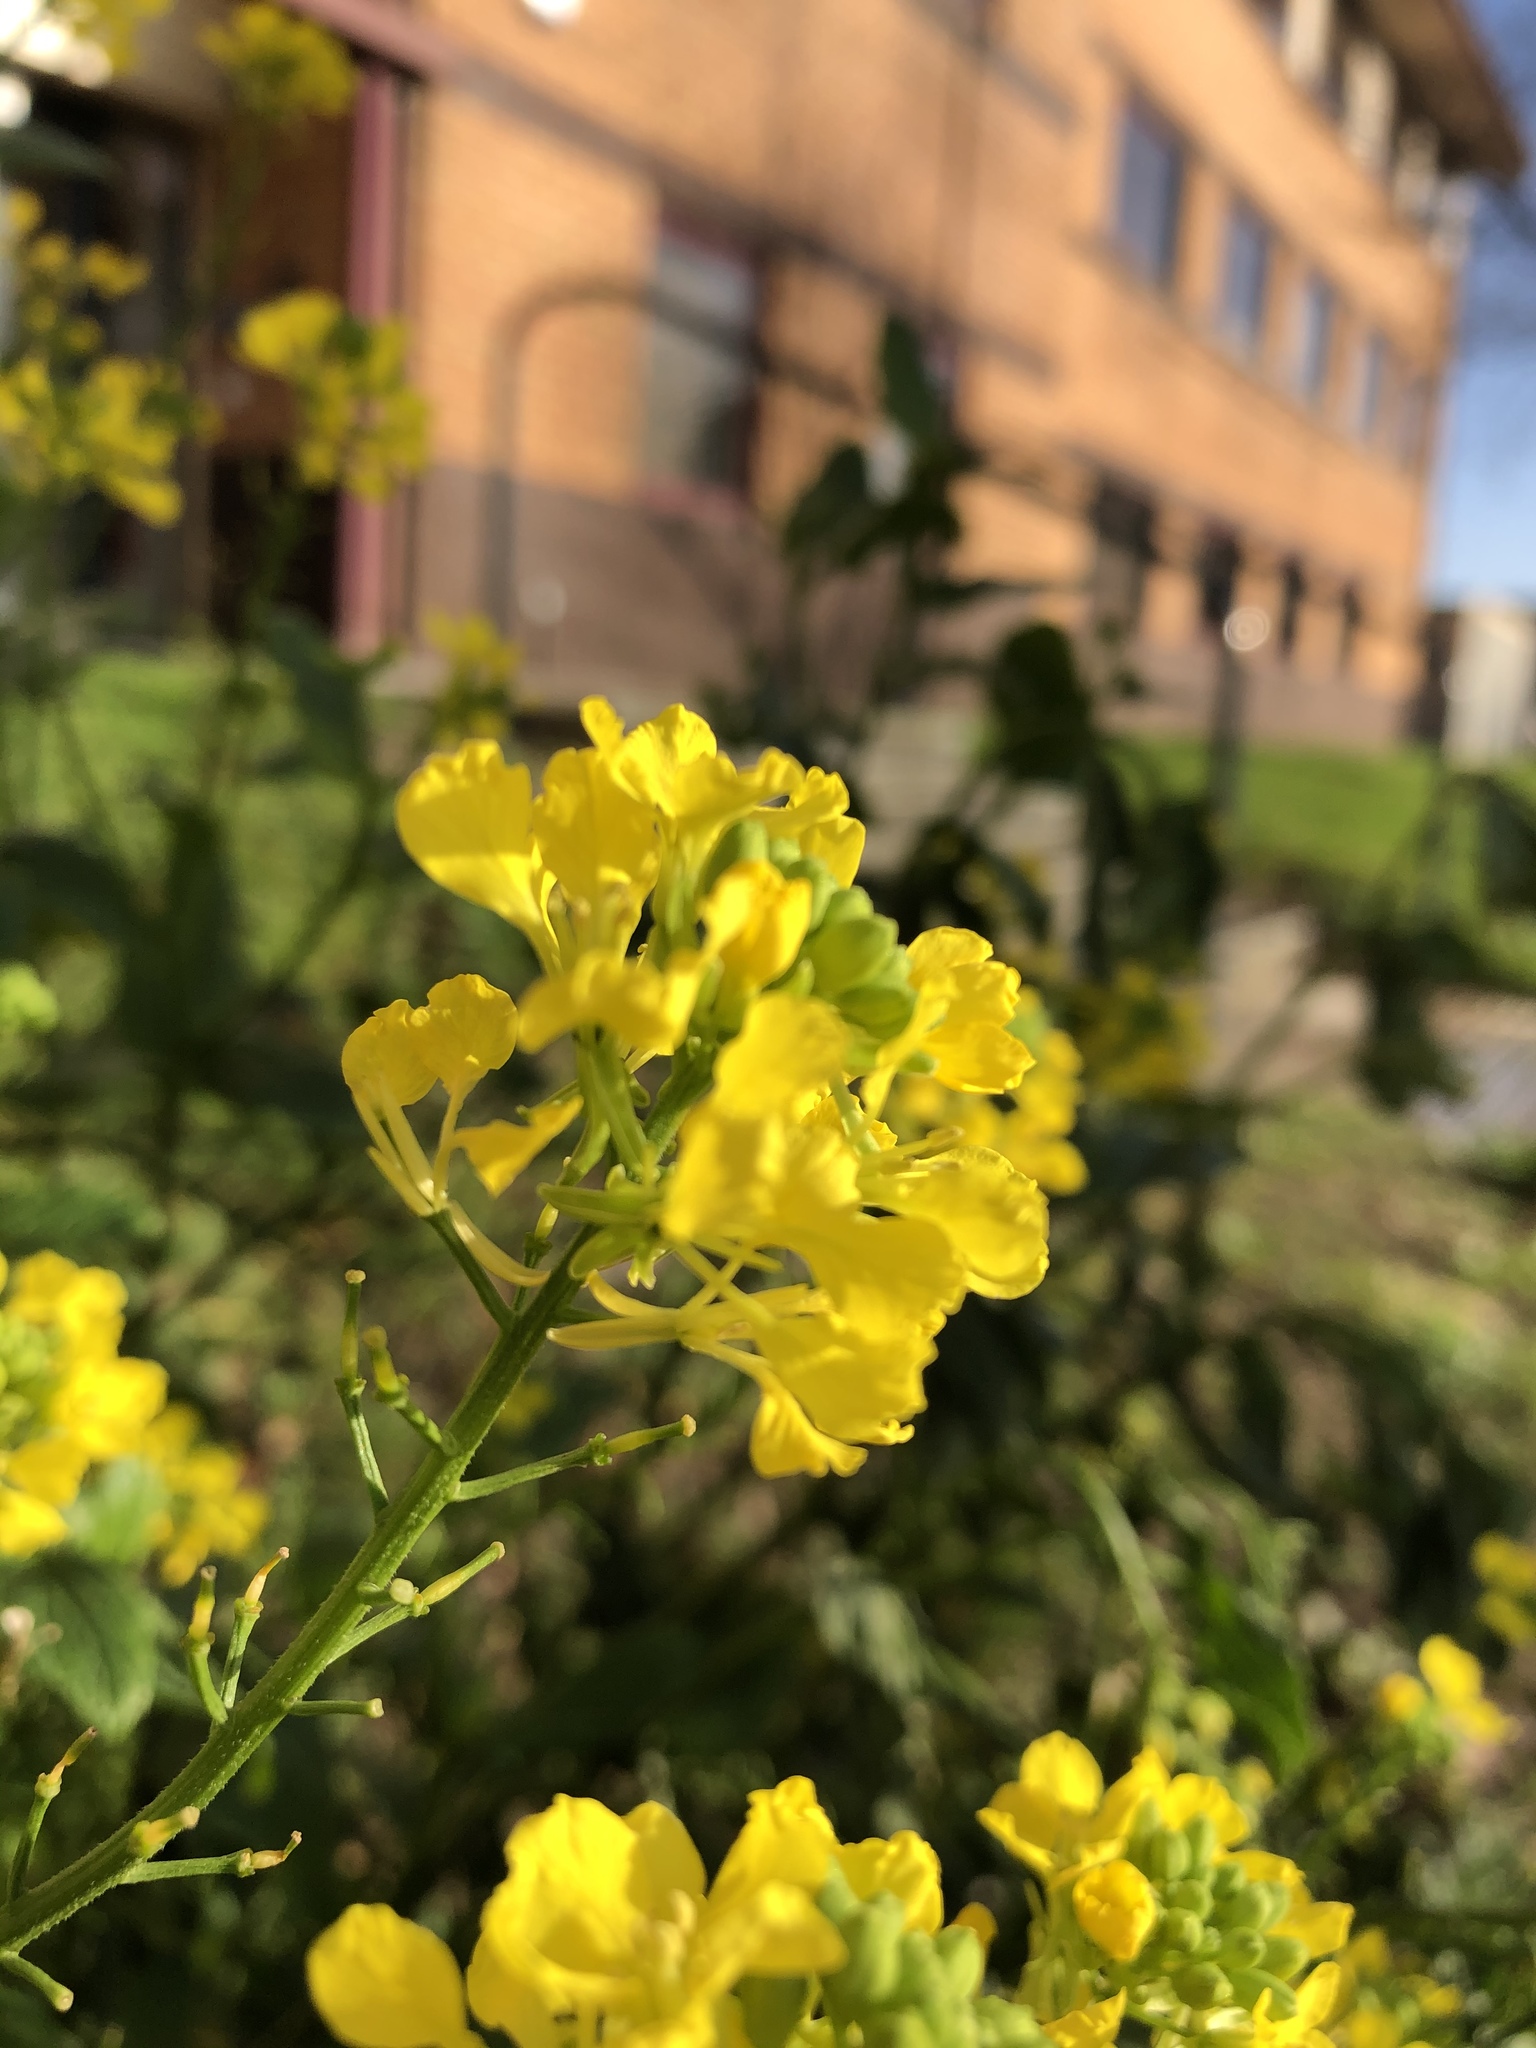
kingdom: Plantae
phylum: Tracheophyta
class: Magnoliopsida
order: Brassicales
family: Brassicaceae
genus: Sinapis
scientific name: Sinapis arvensis
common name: Charlock
